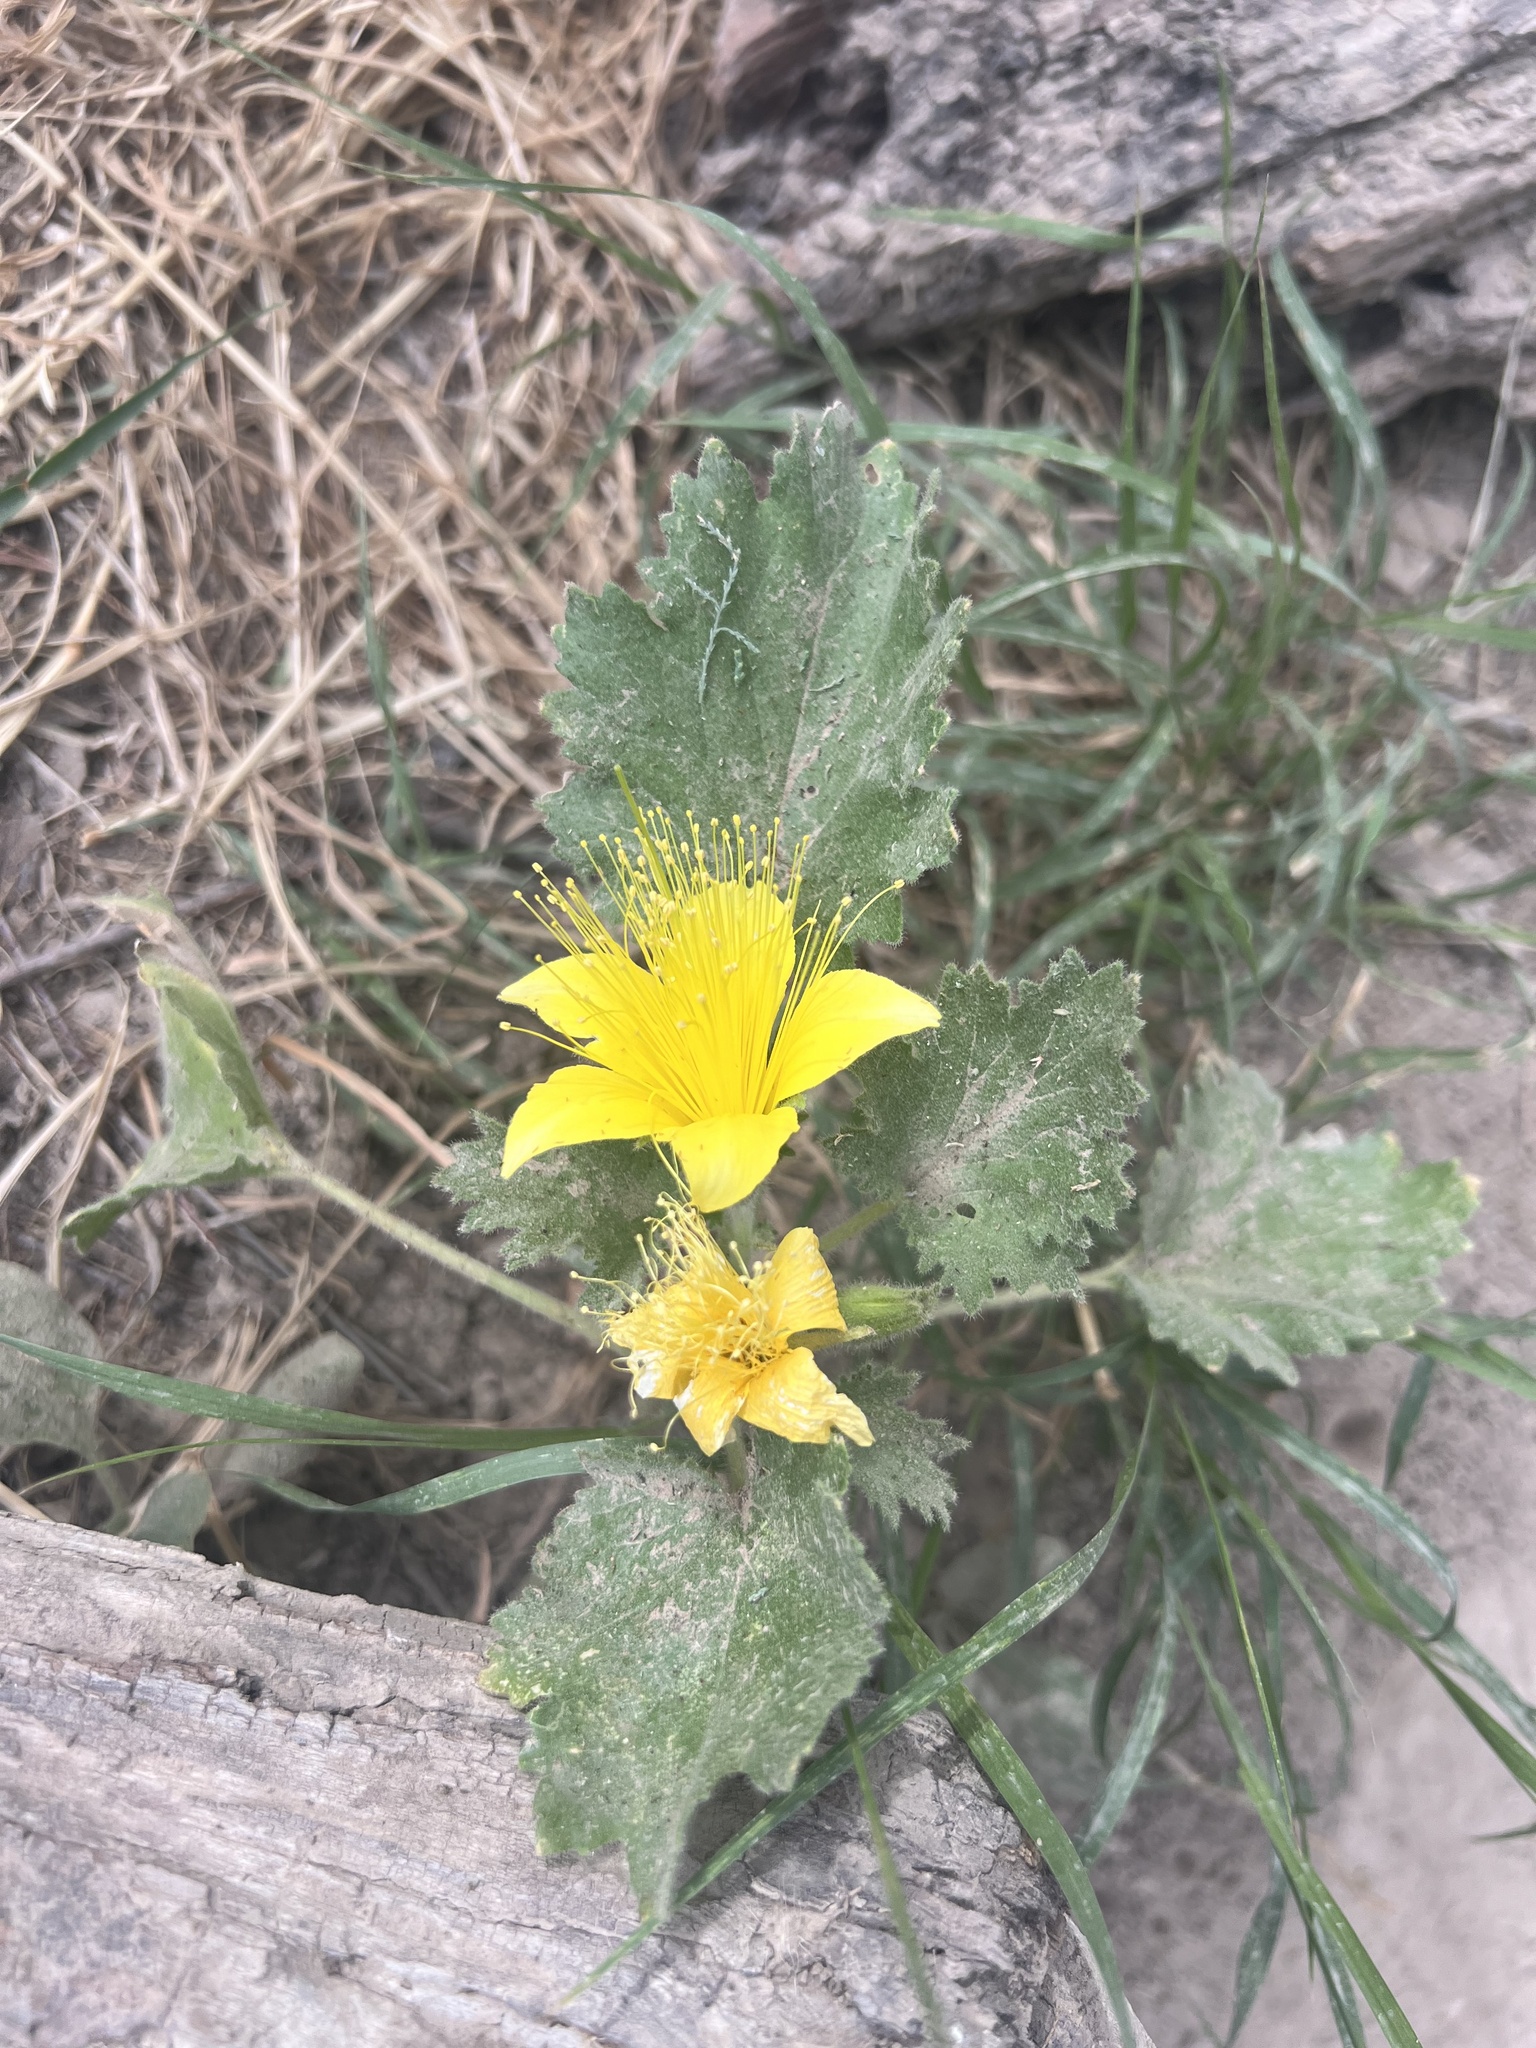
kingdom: Plantae
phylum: Tracheophyta
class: Magnoliopsida
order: Cornales
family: Loasaceae
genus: Eucnide
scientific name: Eucnide bartonioides
